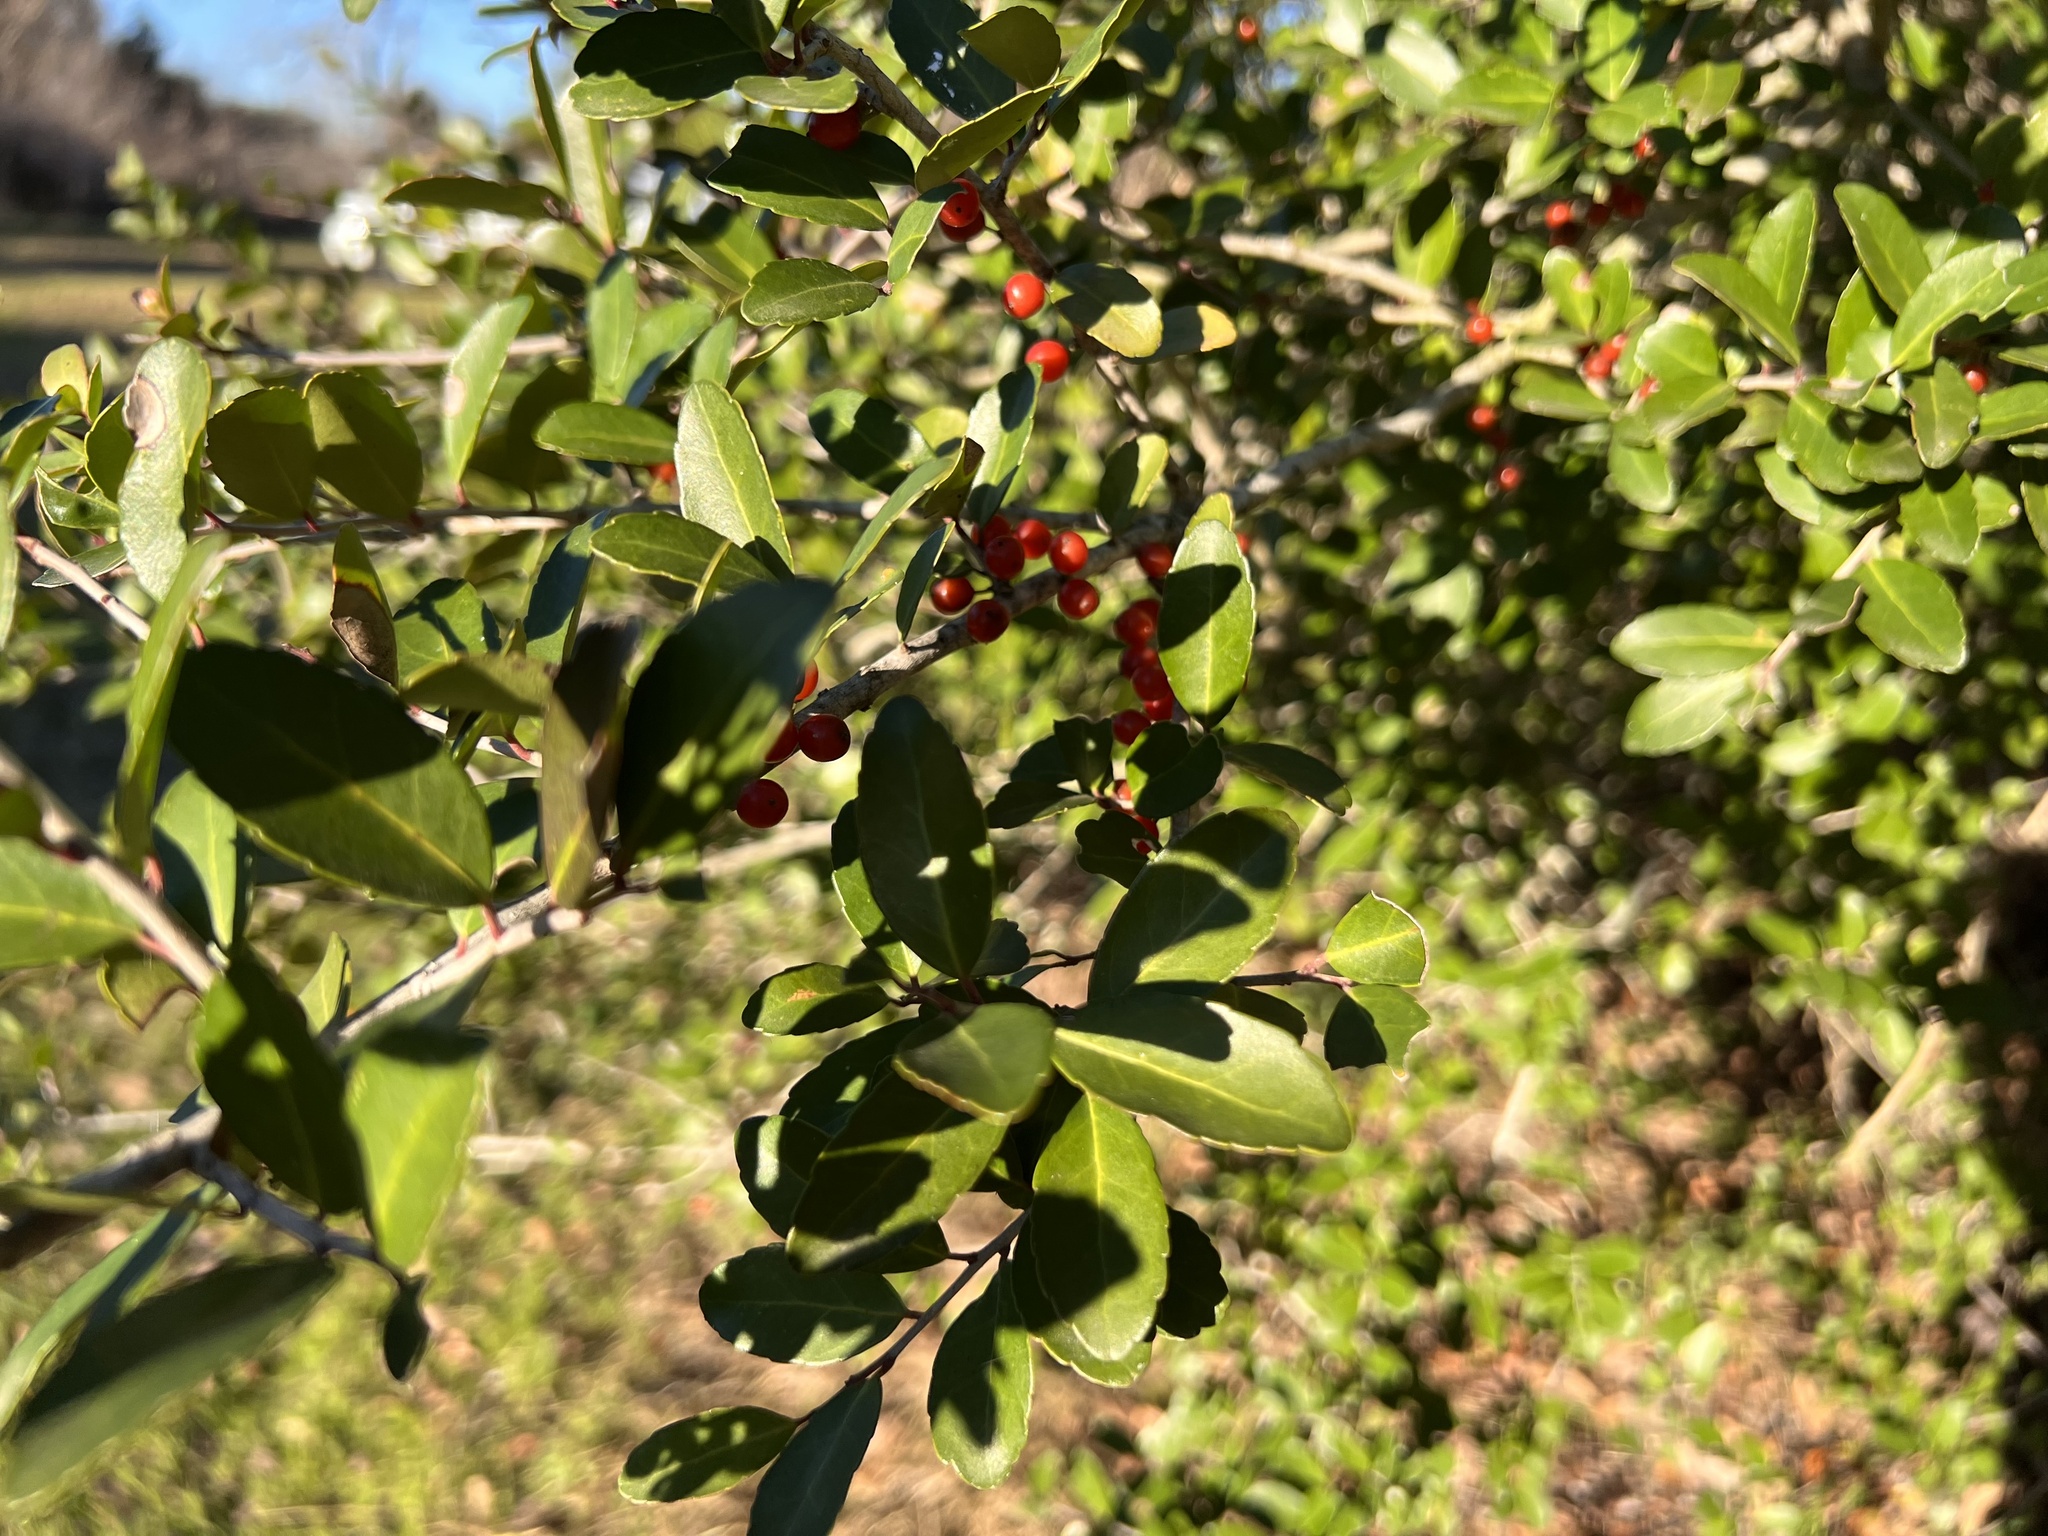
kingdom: Plantae
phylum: Tracheophyta
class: Magnoliopsida
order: Aquifoliales
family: Aquifoliaceae
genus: Ilex
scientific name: Ilex vomitoria
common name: Yaupon holly
